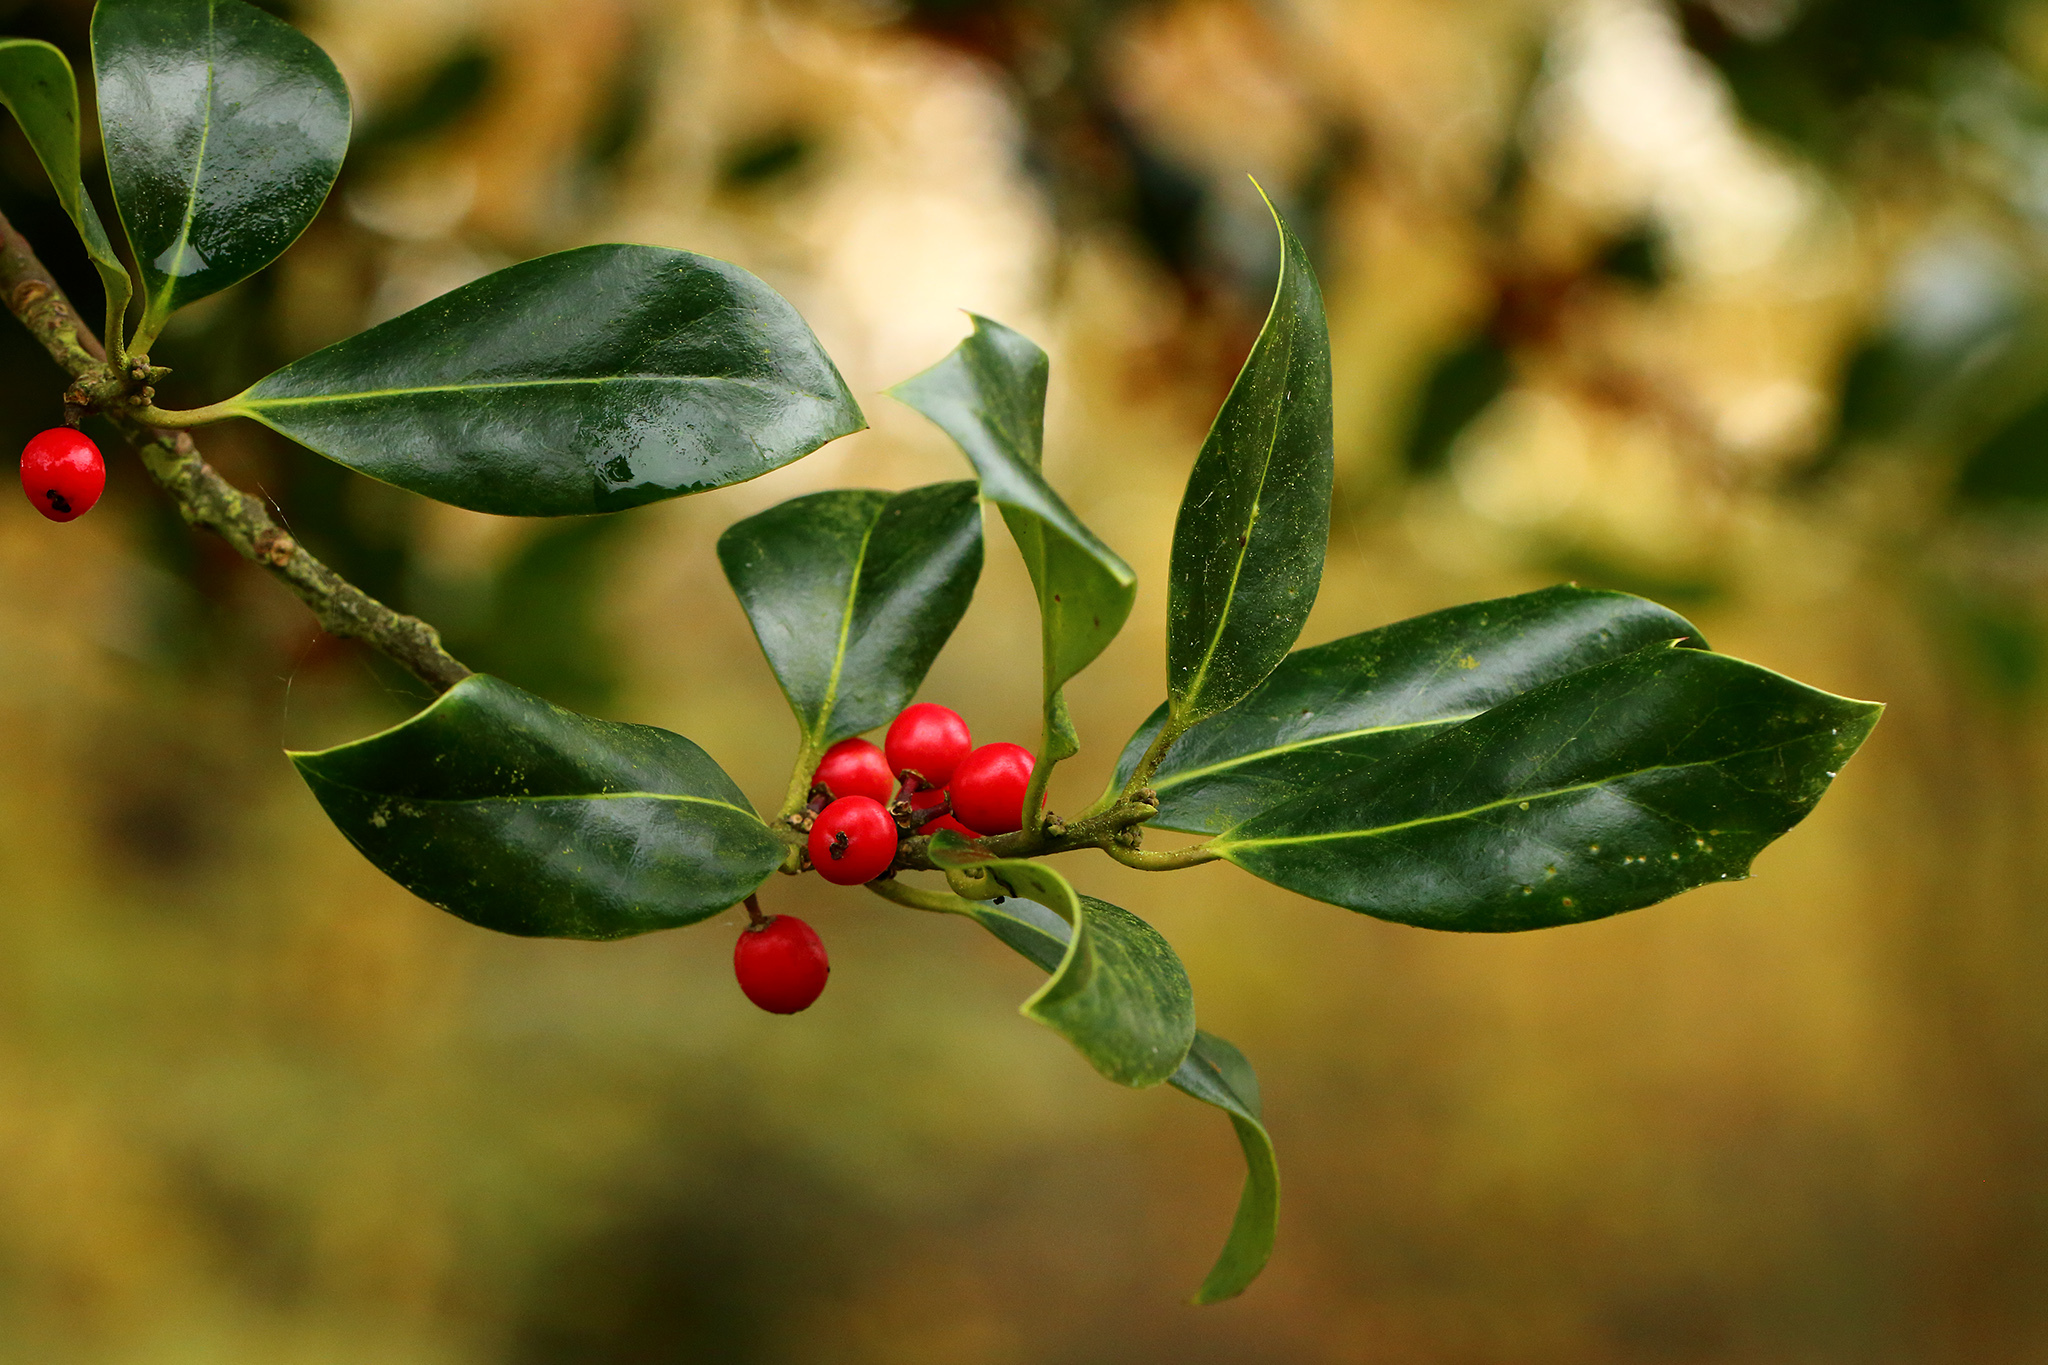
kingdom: Plantae
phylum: Tracheophyta
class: Magnoliopsida
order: Aquifoliales
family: Aquifoliaceae
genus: Ilex
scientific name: Ilex aquifolium
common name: English holly
